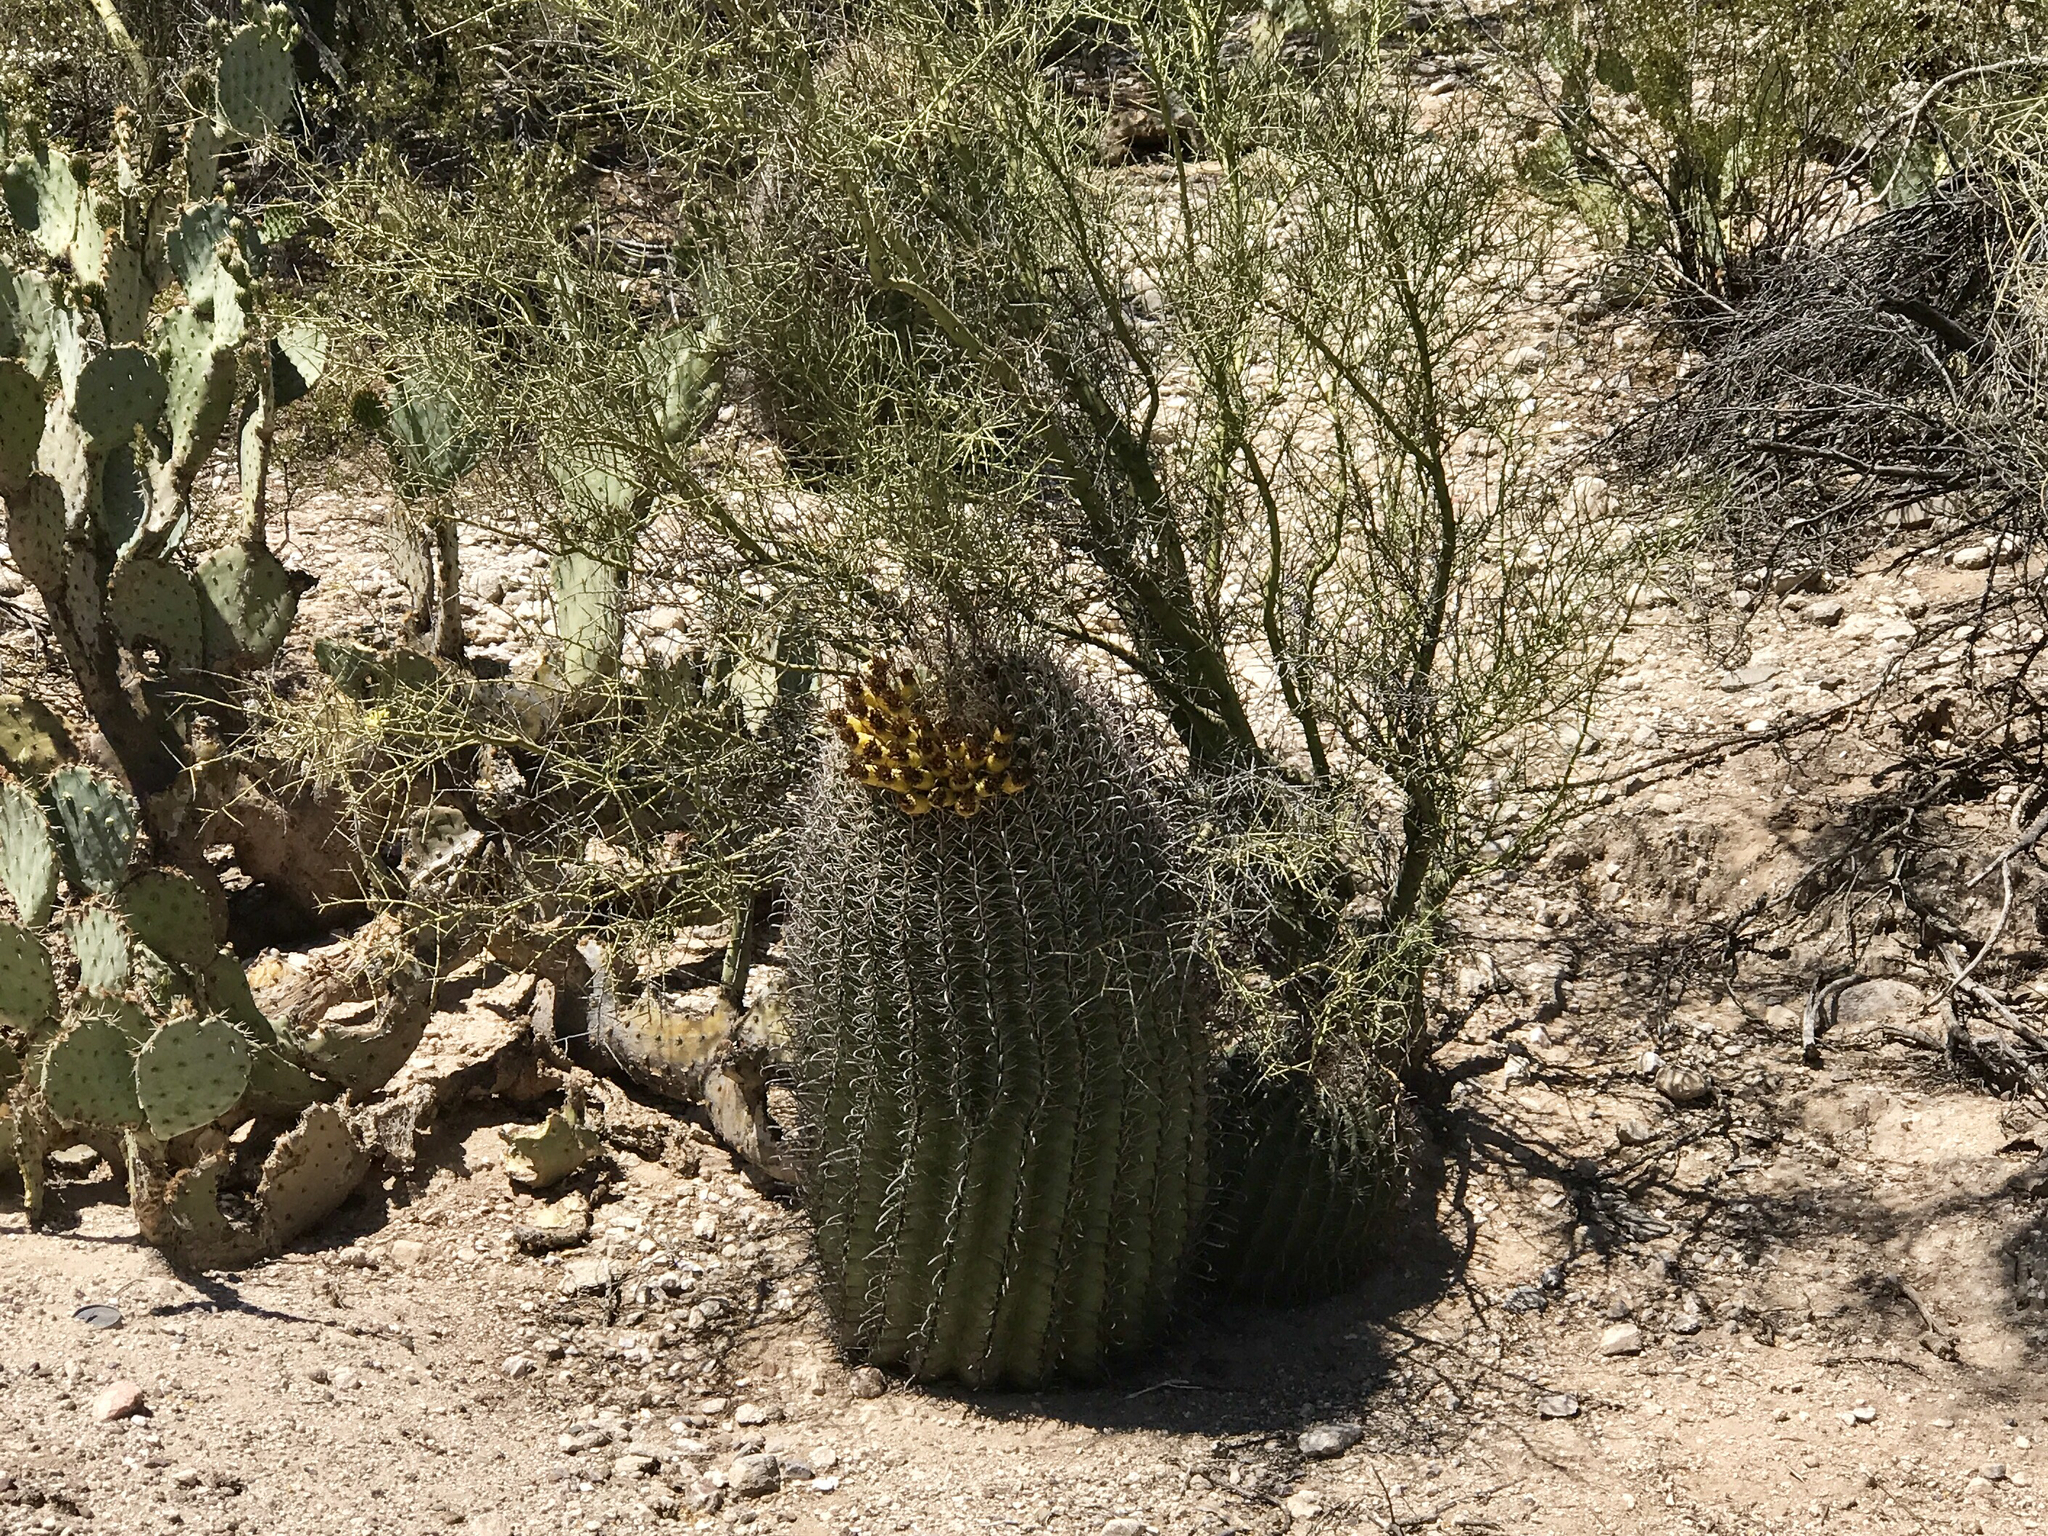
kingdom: Plantae
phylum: Tracheophyta
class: Magnoliopsida
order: Caryophyllales
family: Cactaceae
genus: Ferocactus
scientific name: Ferocactus wislizeni
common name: Candy barrel cactus
